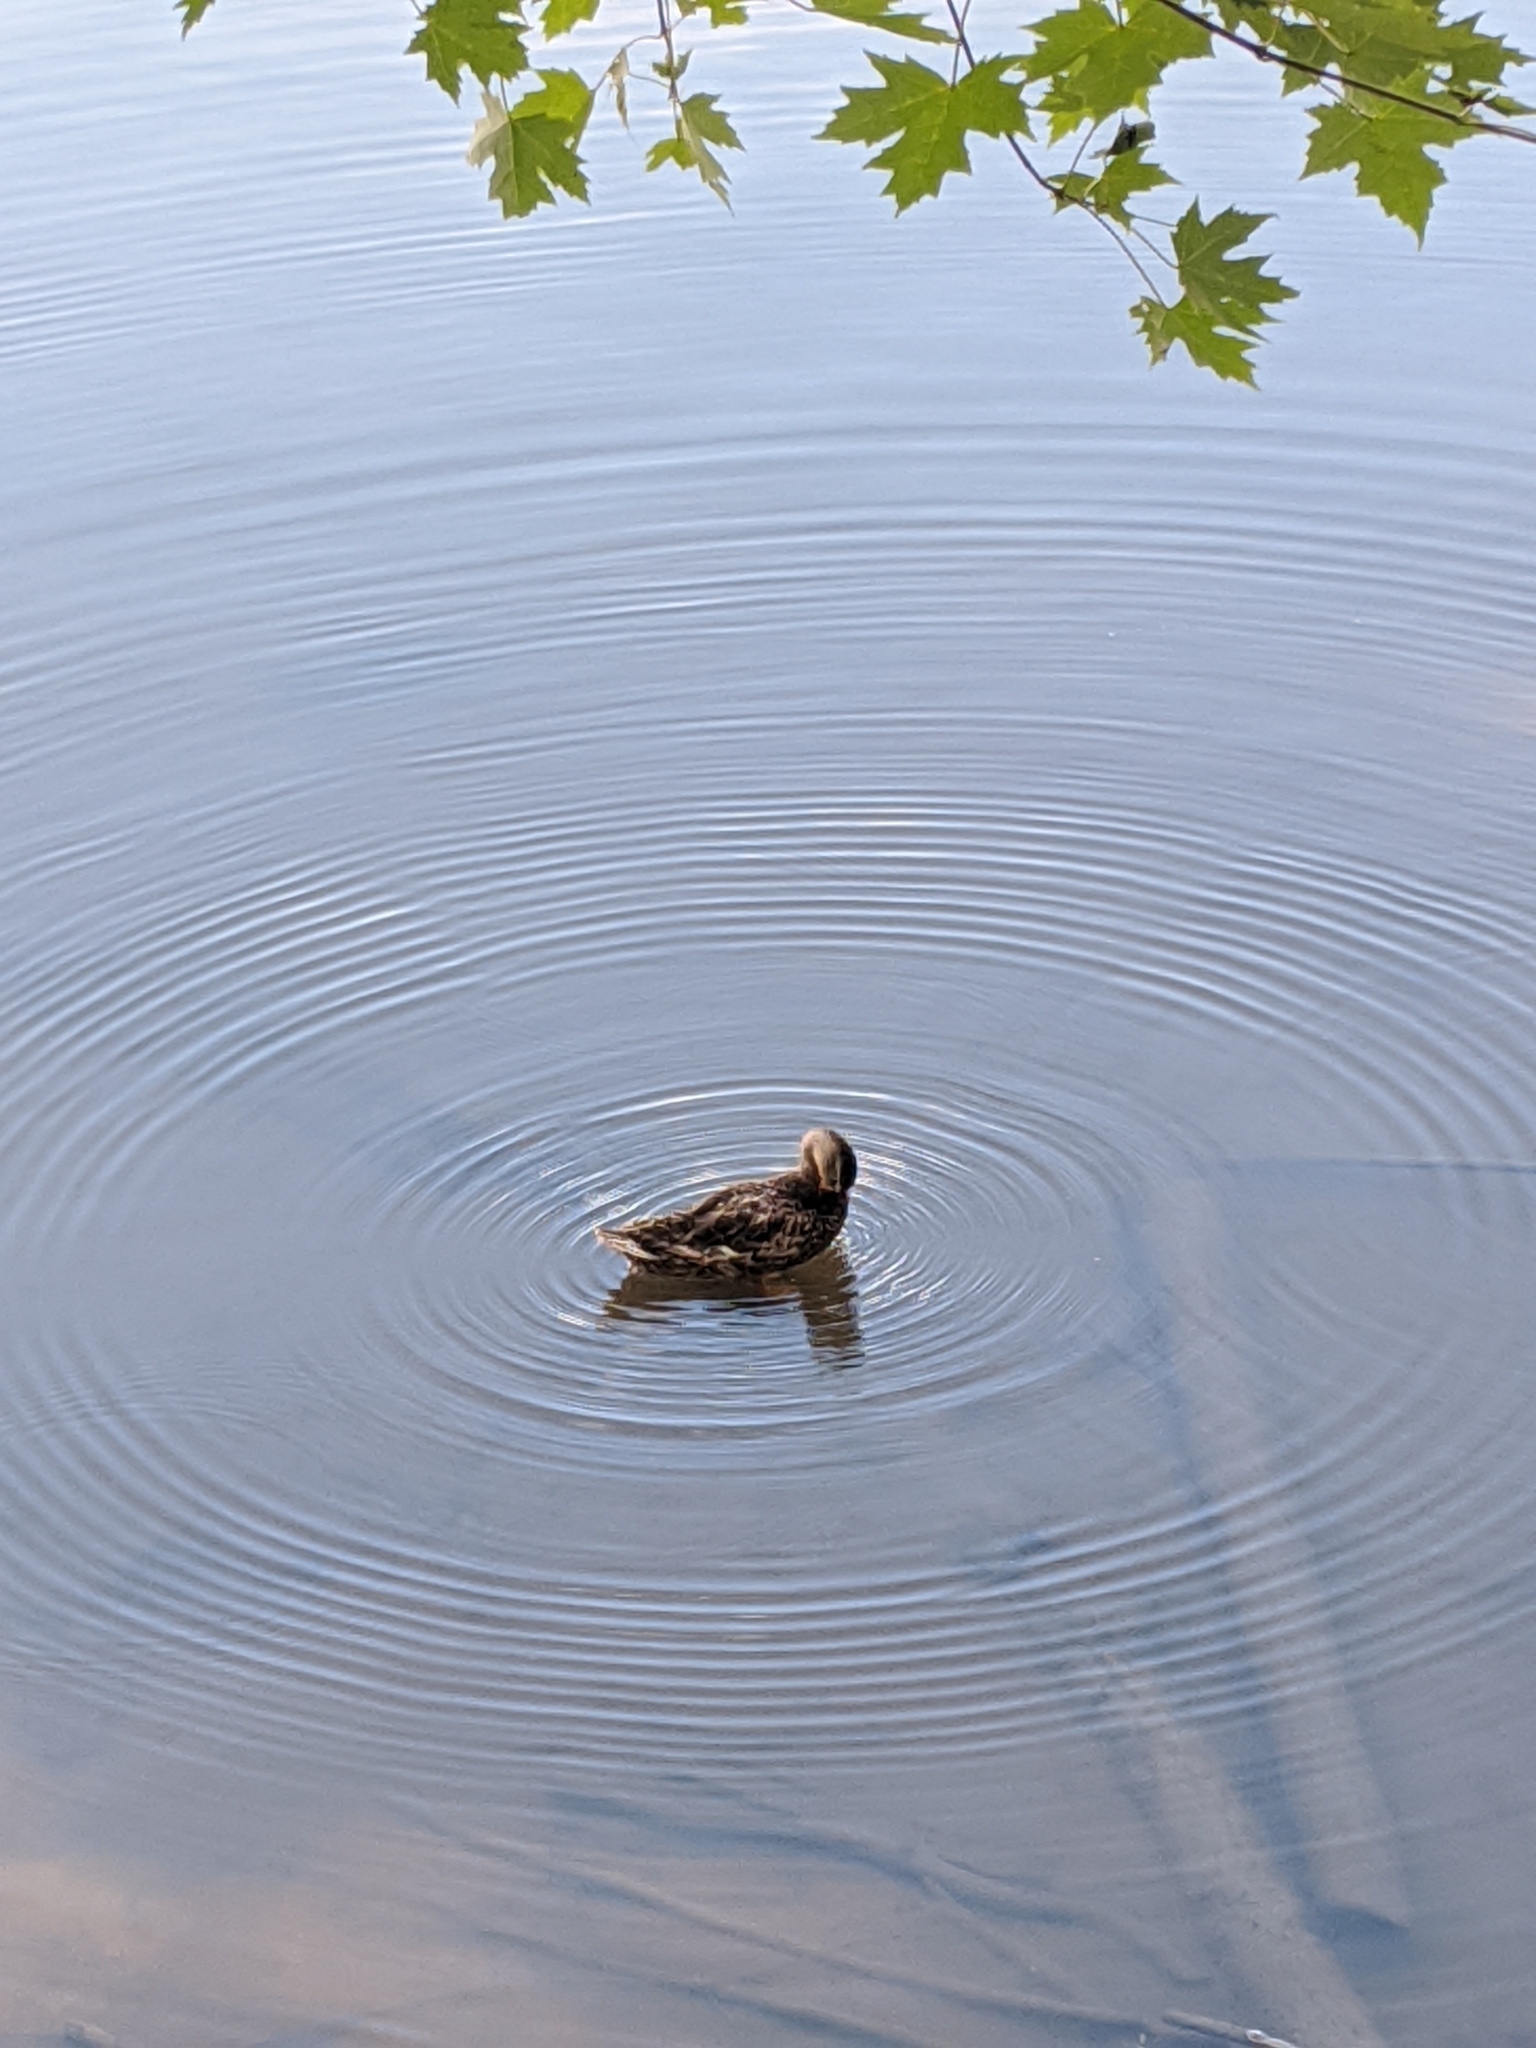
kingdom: Animalia
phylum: Chordata
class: Aves
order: Anseriformes
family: Anatidae
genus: Anas
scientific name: Anas platyrhynchos
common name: Mallard
